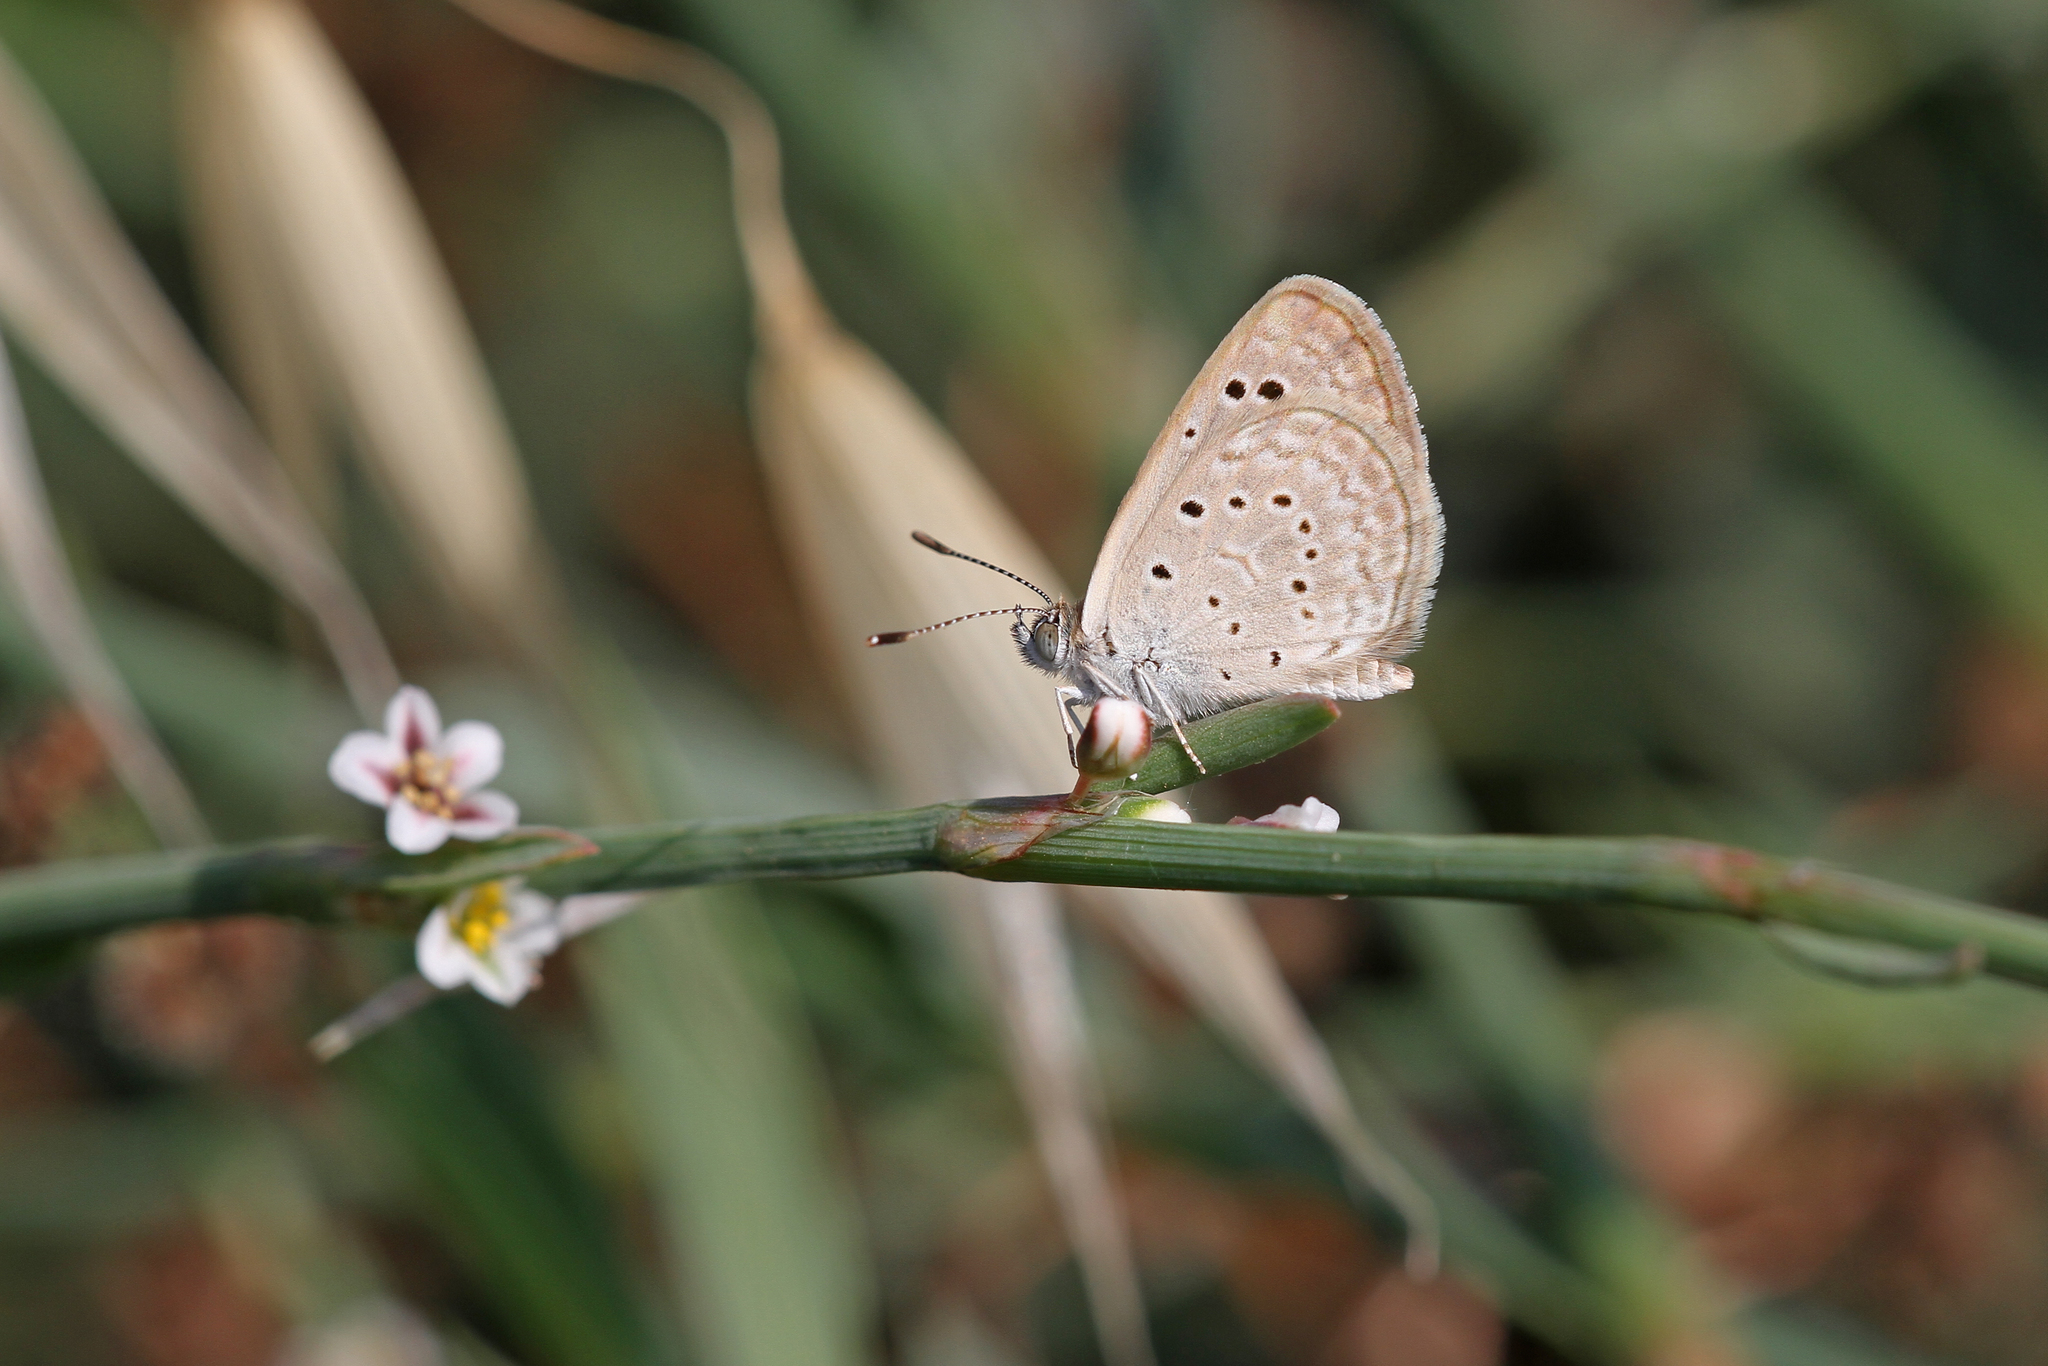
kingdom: Animalia
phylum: Arthropoda
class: Insecta
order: Lepidoptera
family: Lycaenidae
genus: Zizeeria
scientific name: Zizeeria karsandra
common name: Dark grass blue
